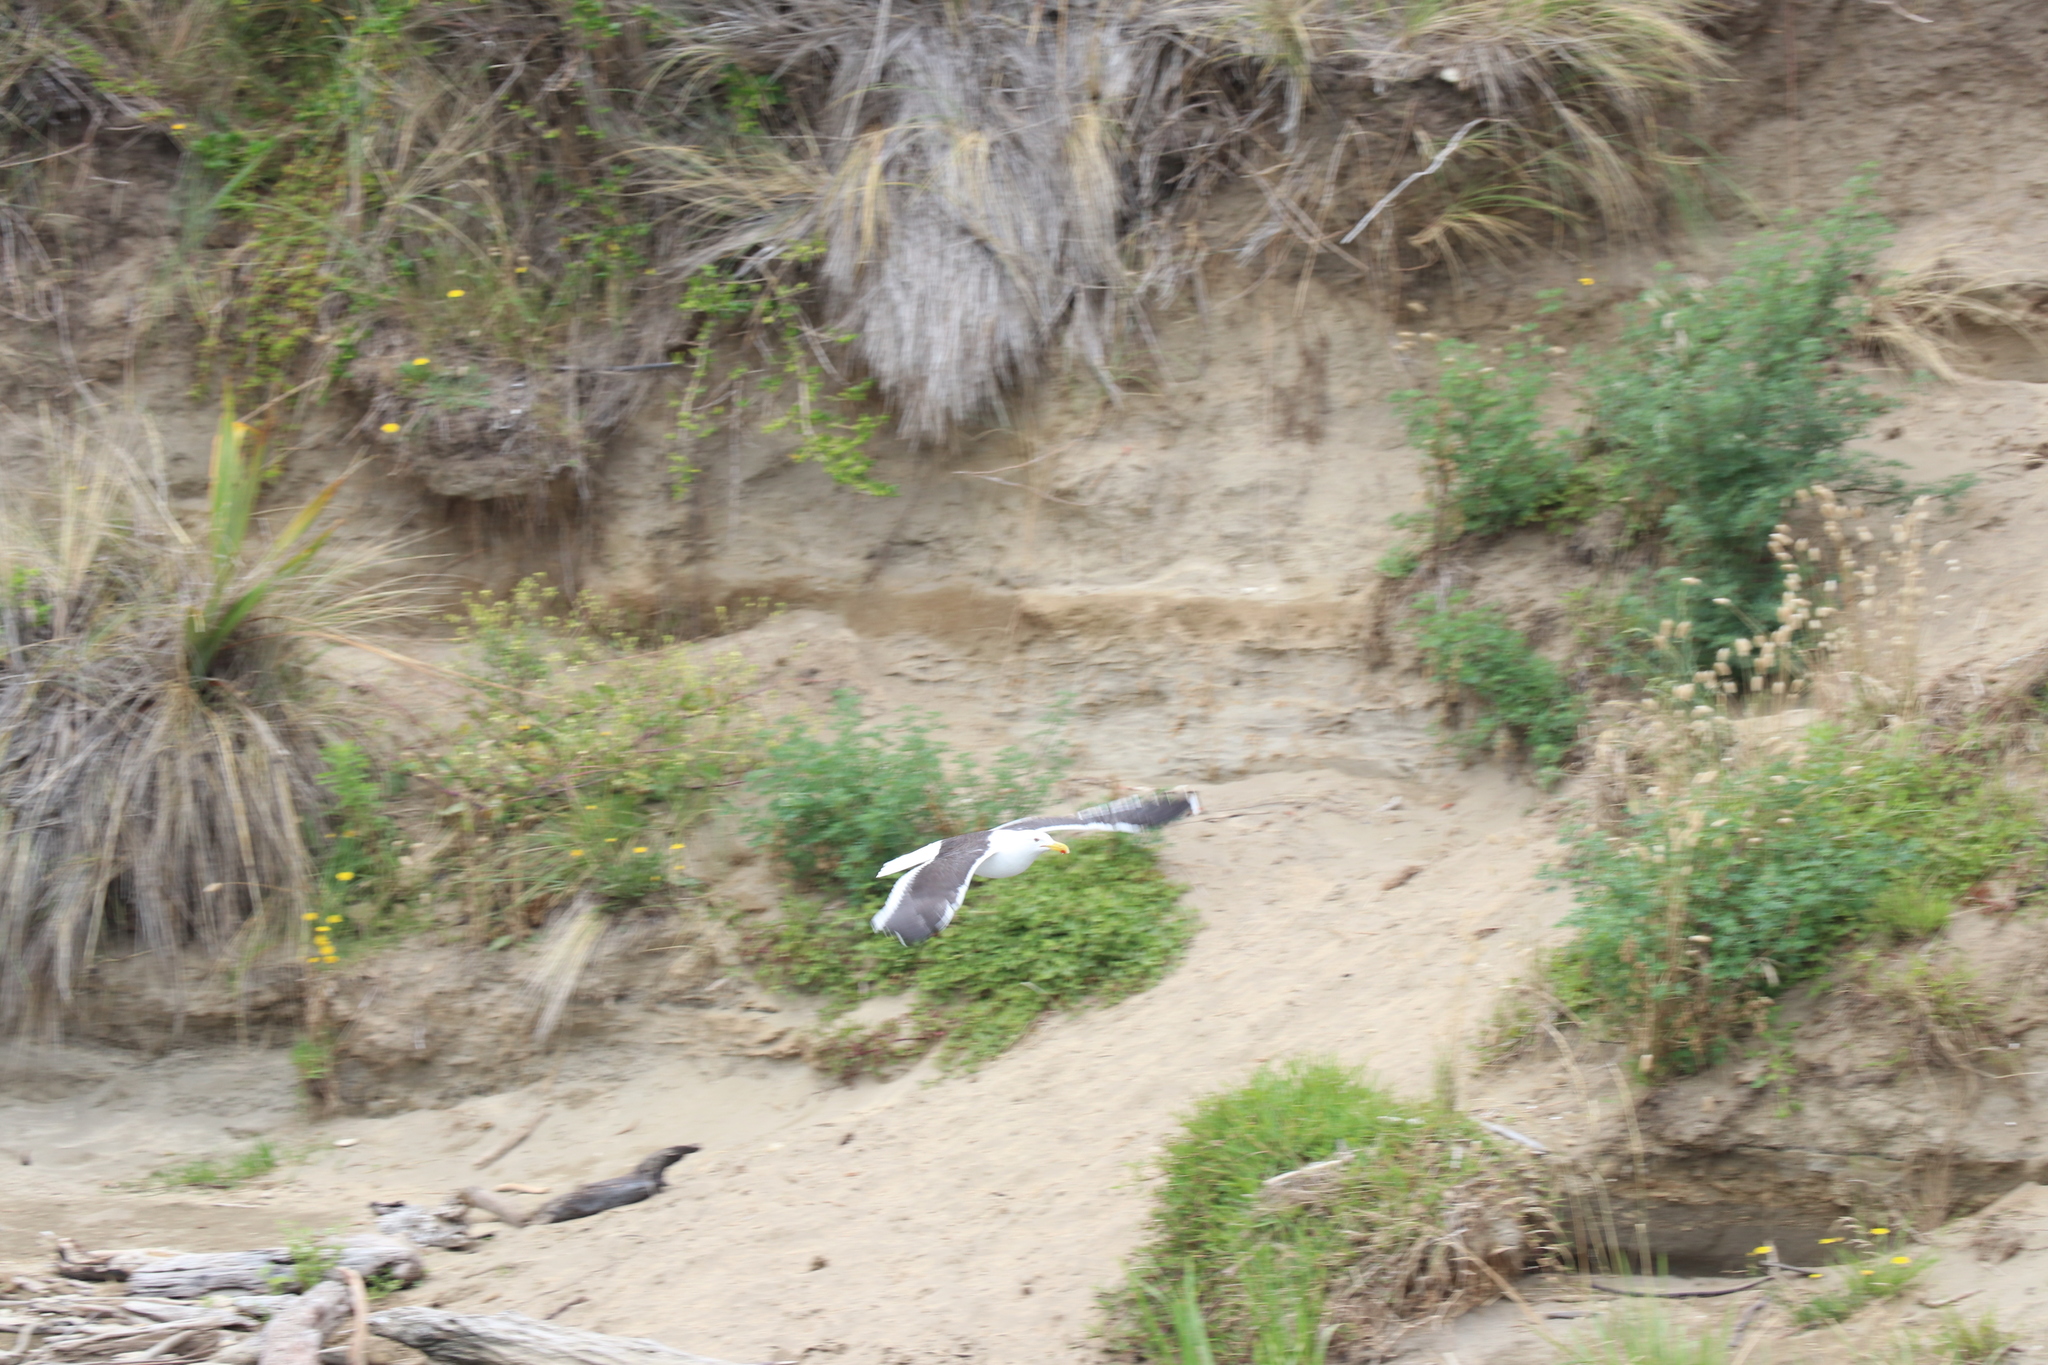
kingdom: Animalia
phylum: Chordata
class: Aves
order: Charadriiformes
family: Laridae
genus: Larus
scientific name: Larus dominicanus
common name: Kelp gull
